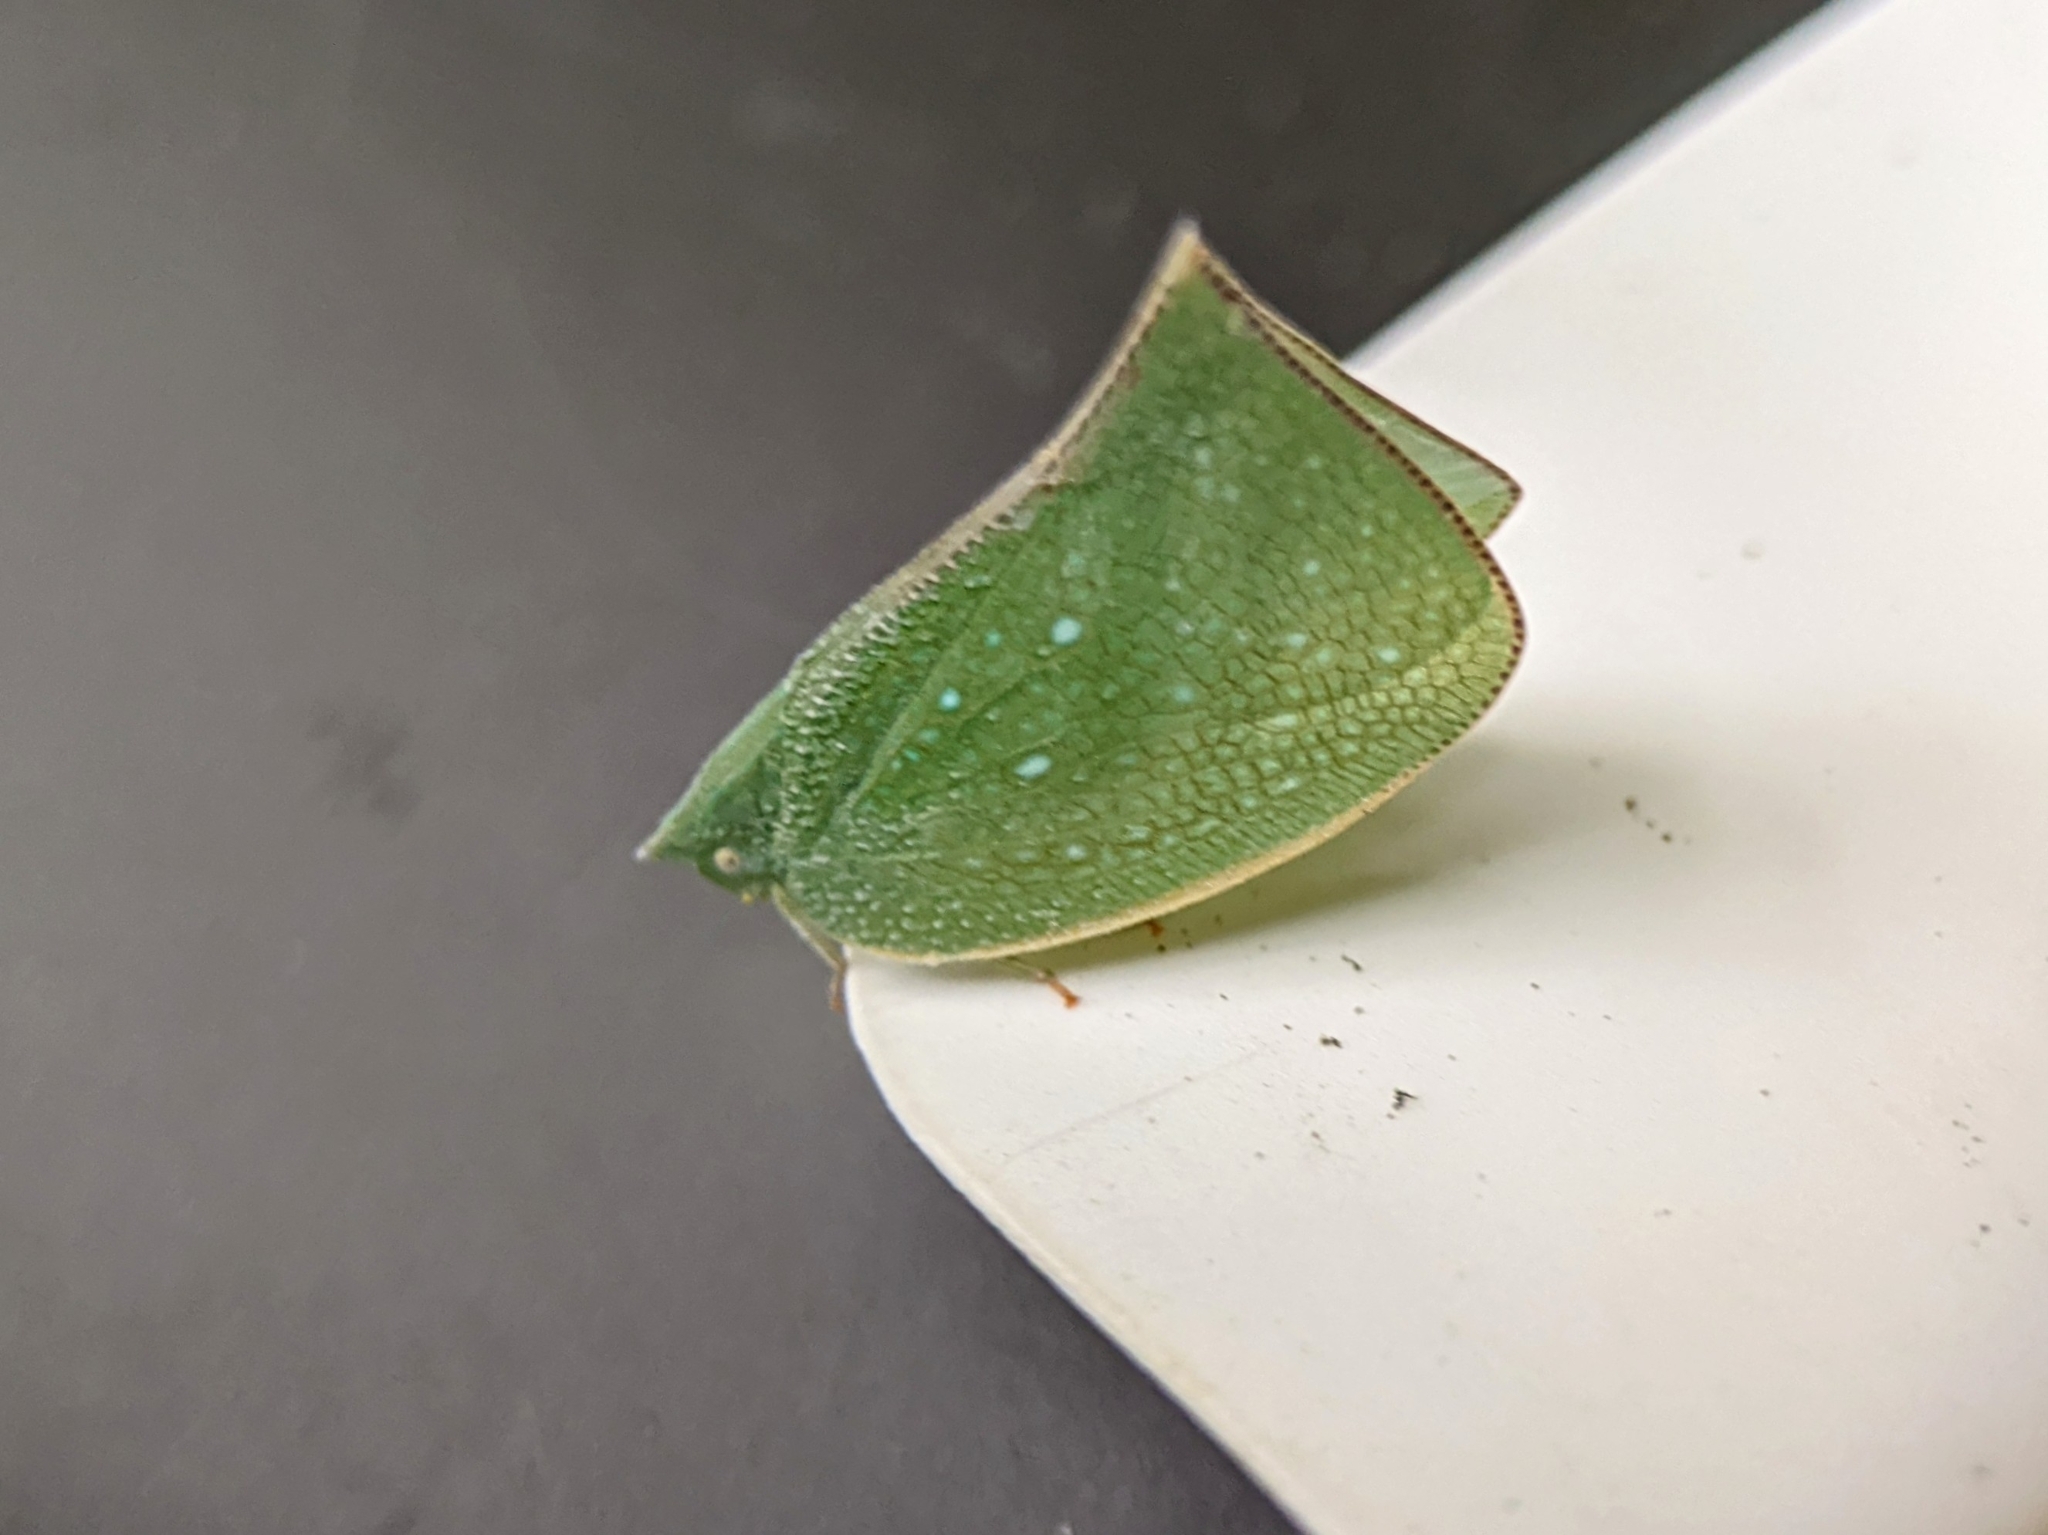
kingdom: Animalia
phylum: Arthropoda
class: Insecta
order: Hemiptera
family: Flatidae
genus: Cromna
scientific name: Cromna acutipennis
